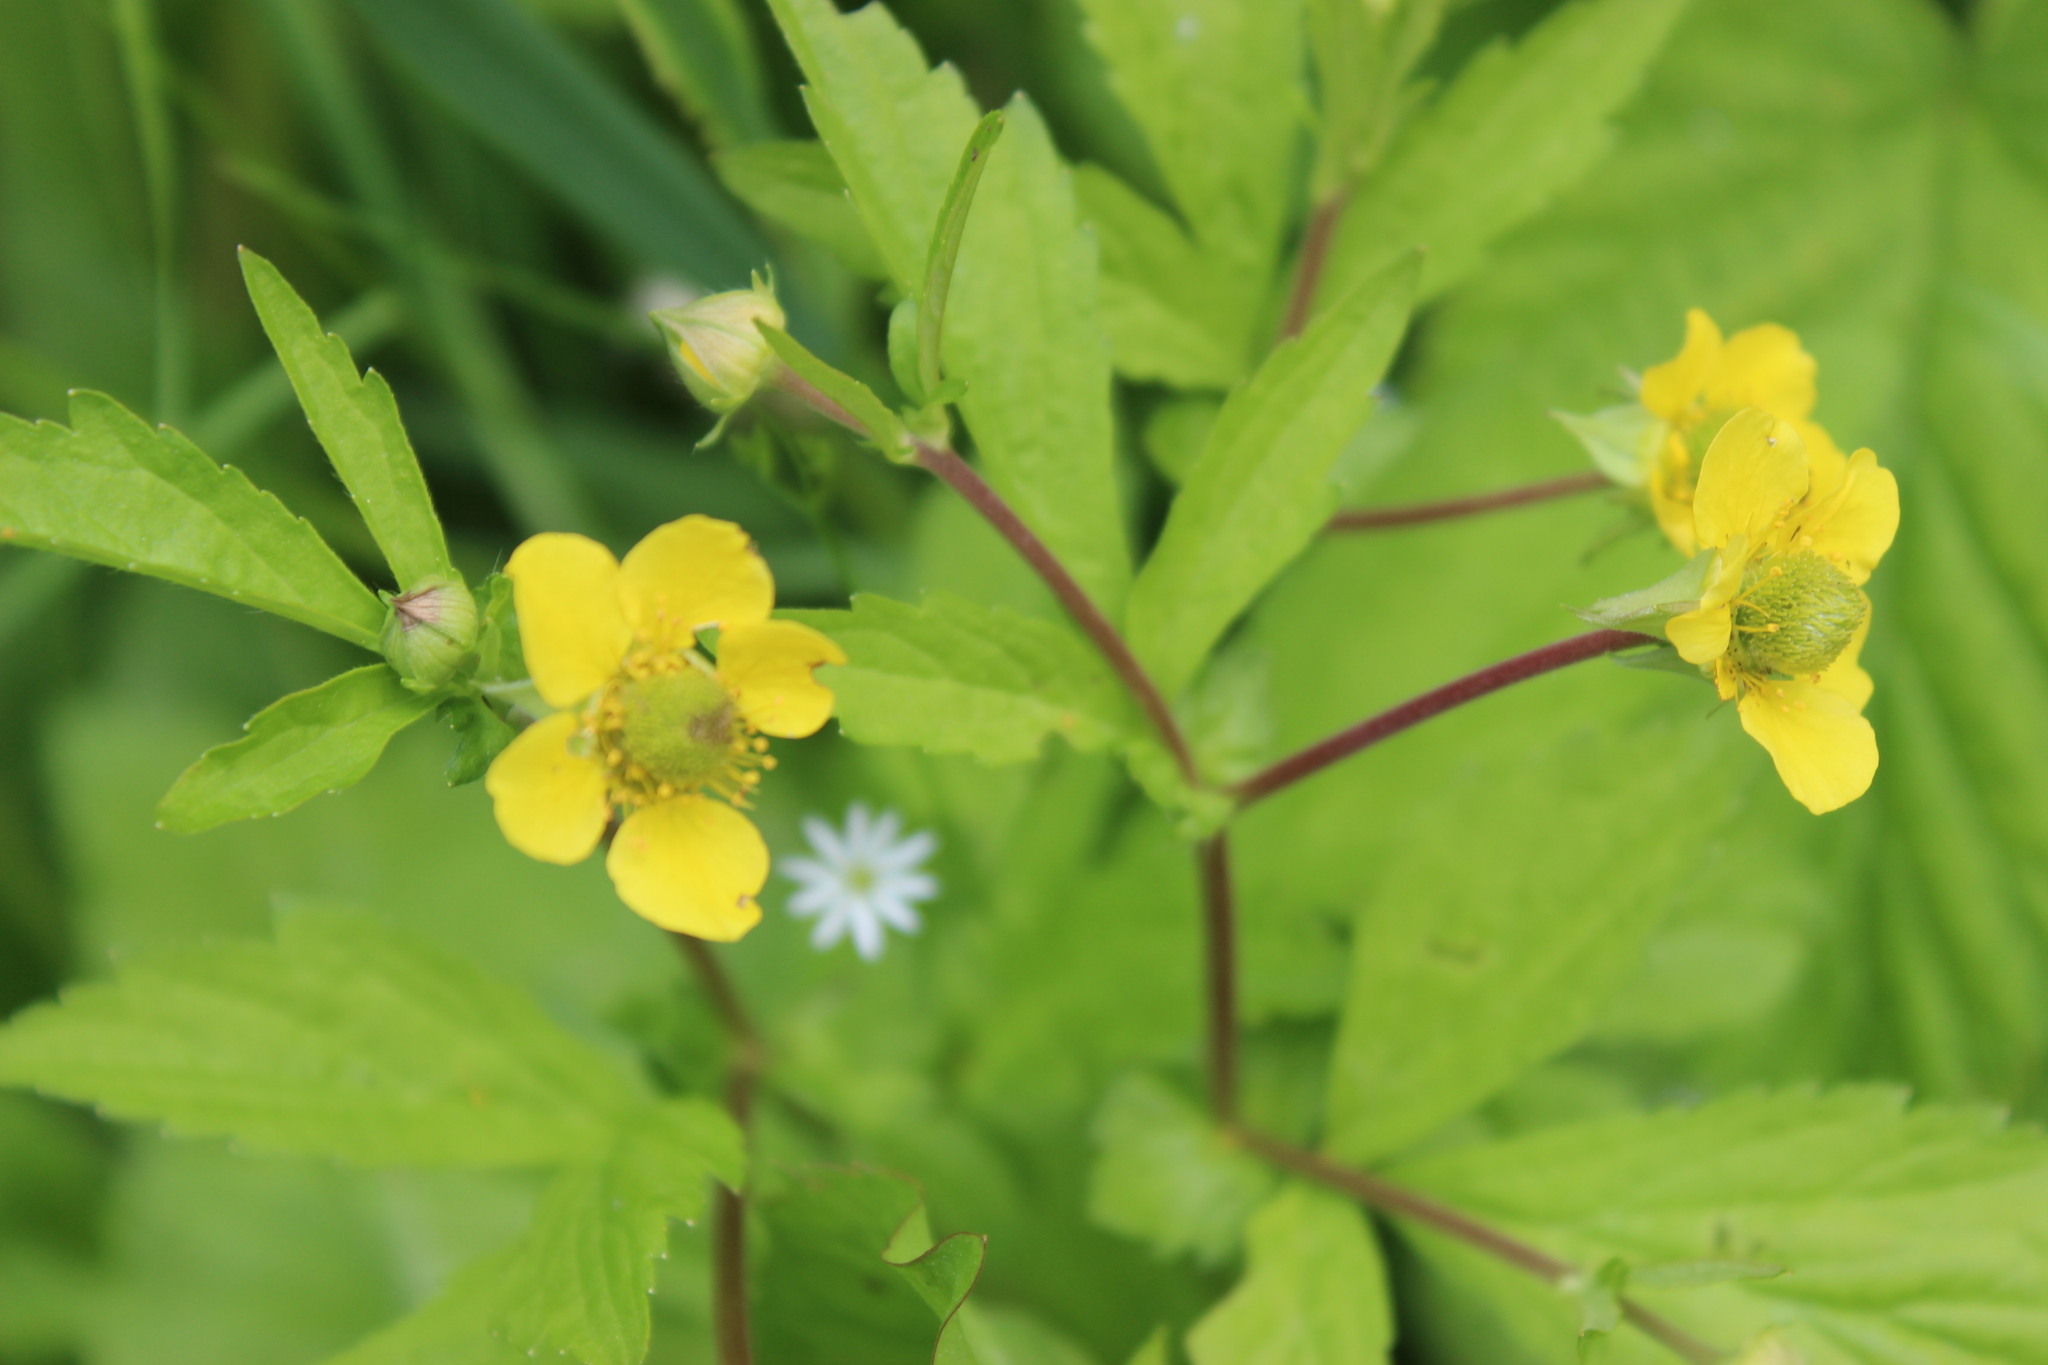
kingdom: Plantae
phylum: Tracheophyta
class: Magnoliopsida
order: Rosales
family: Rosaceae
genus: Geum
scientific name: Geum aleppicum
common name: Yellow avens
